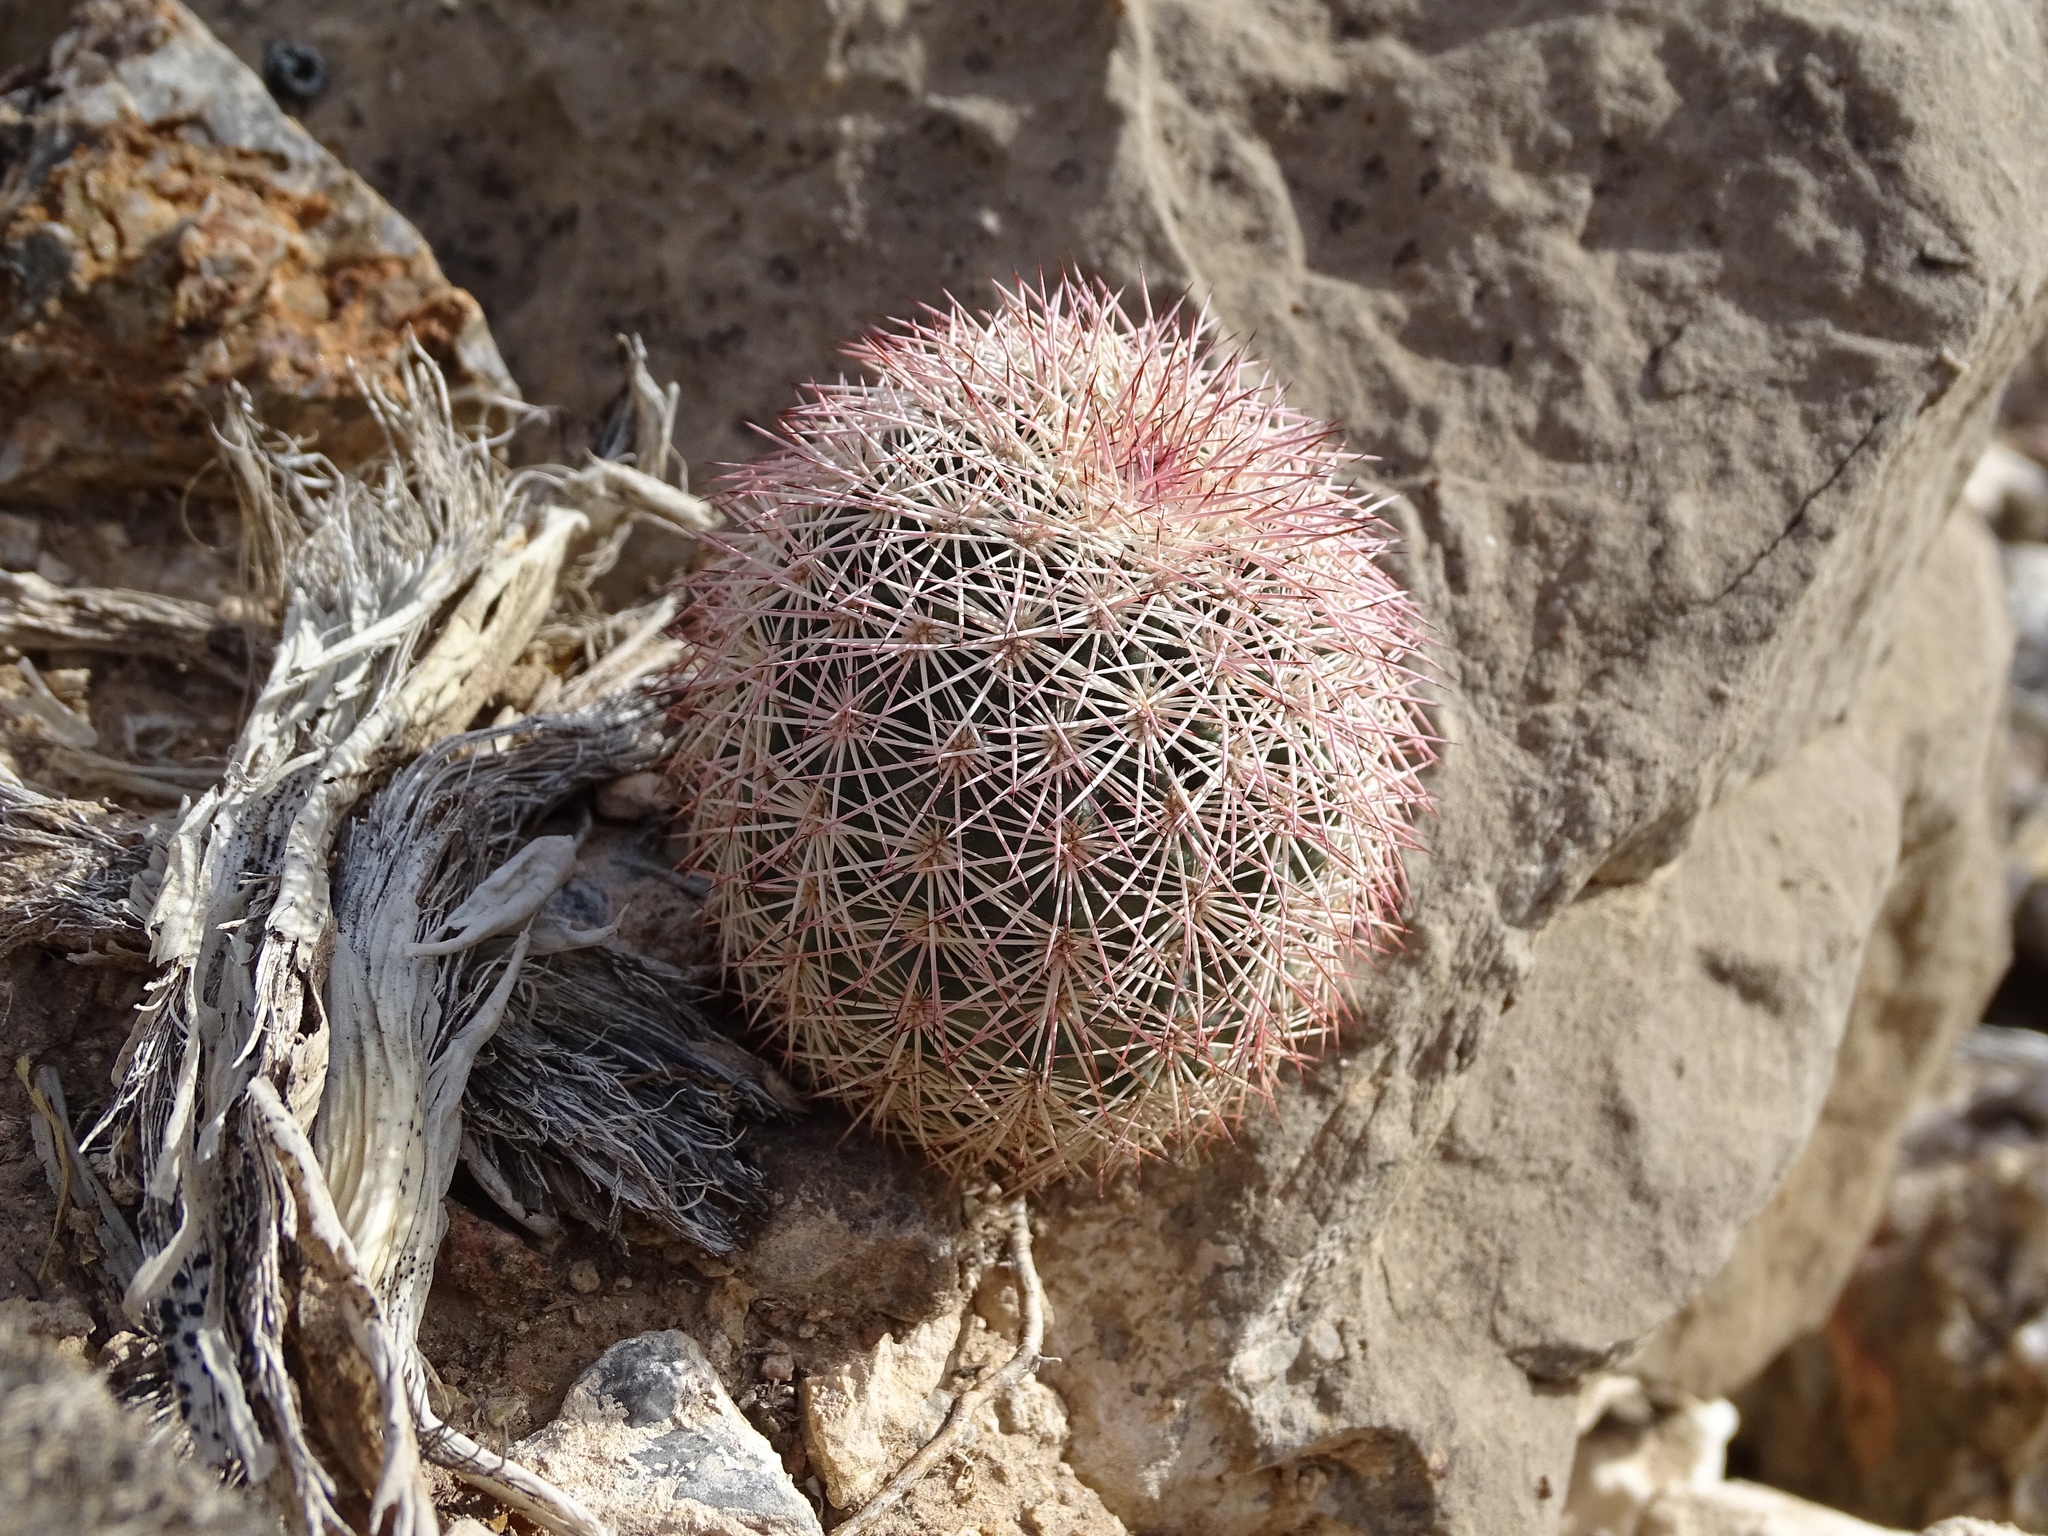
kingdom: Plantae
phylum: Tracheophyta
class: Magnoliopsida
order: Caryophyllales
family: Cactaceae
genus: Echinocereus
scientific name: Echinocereus dasyacanthus
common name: Spiny hedgehog cactus
